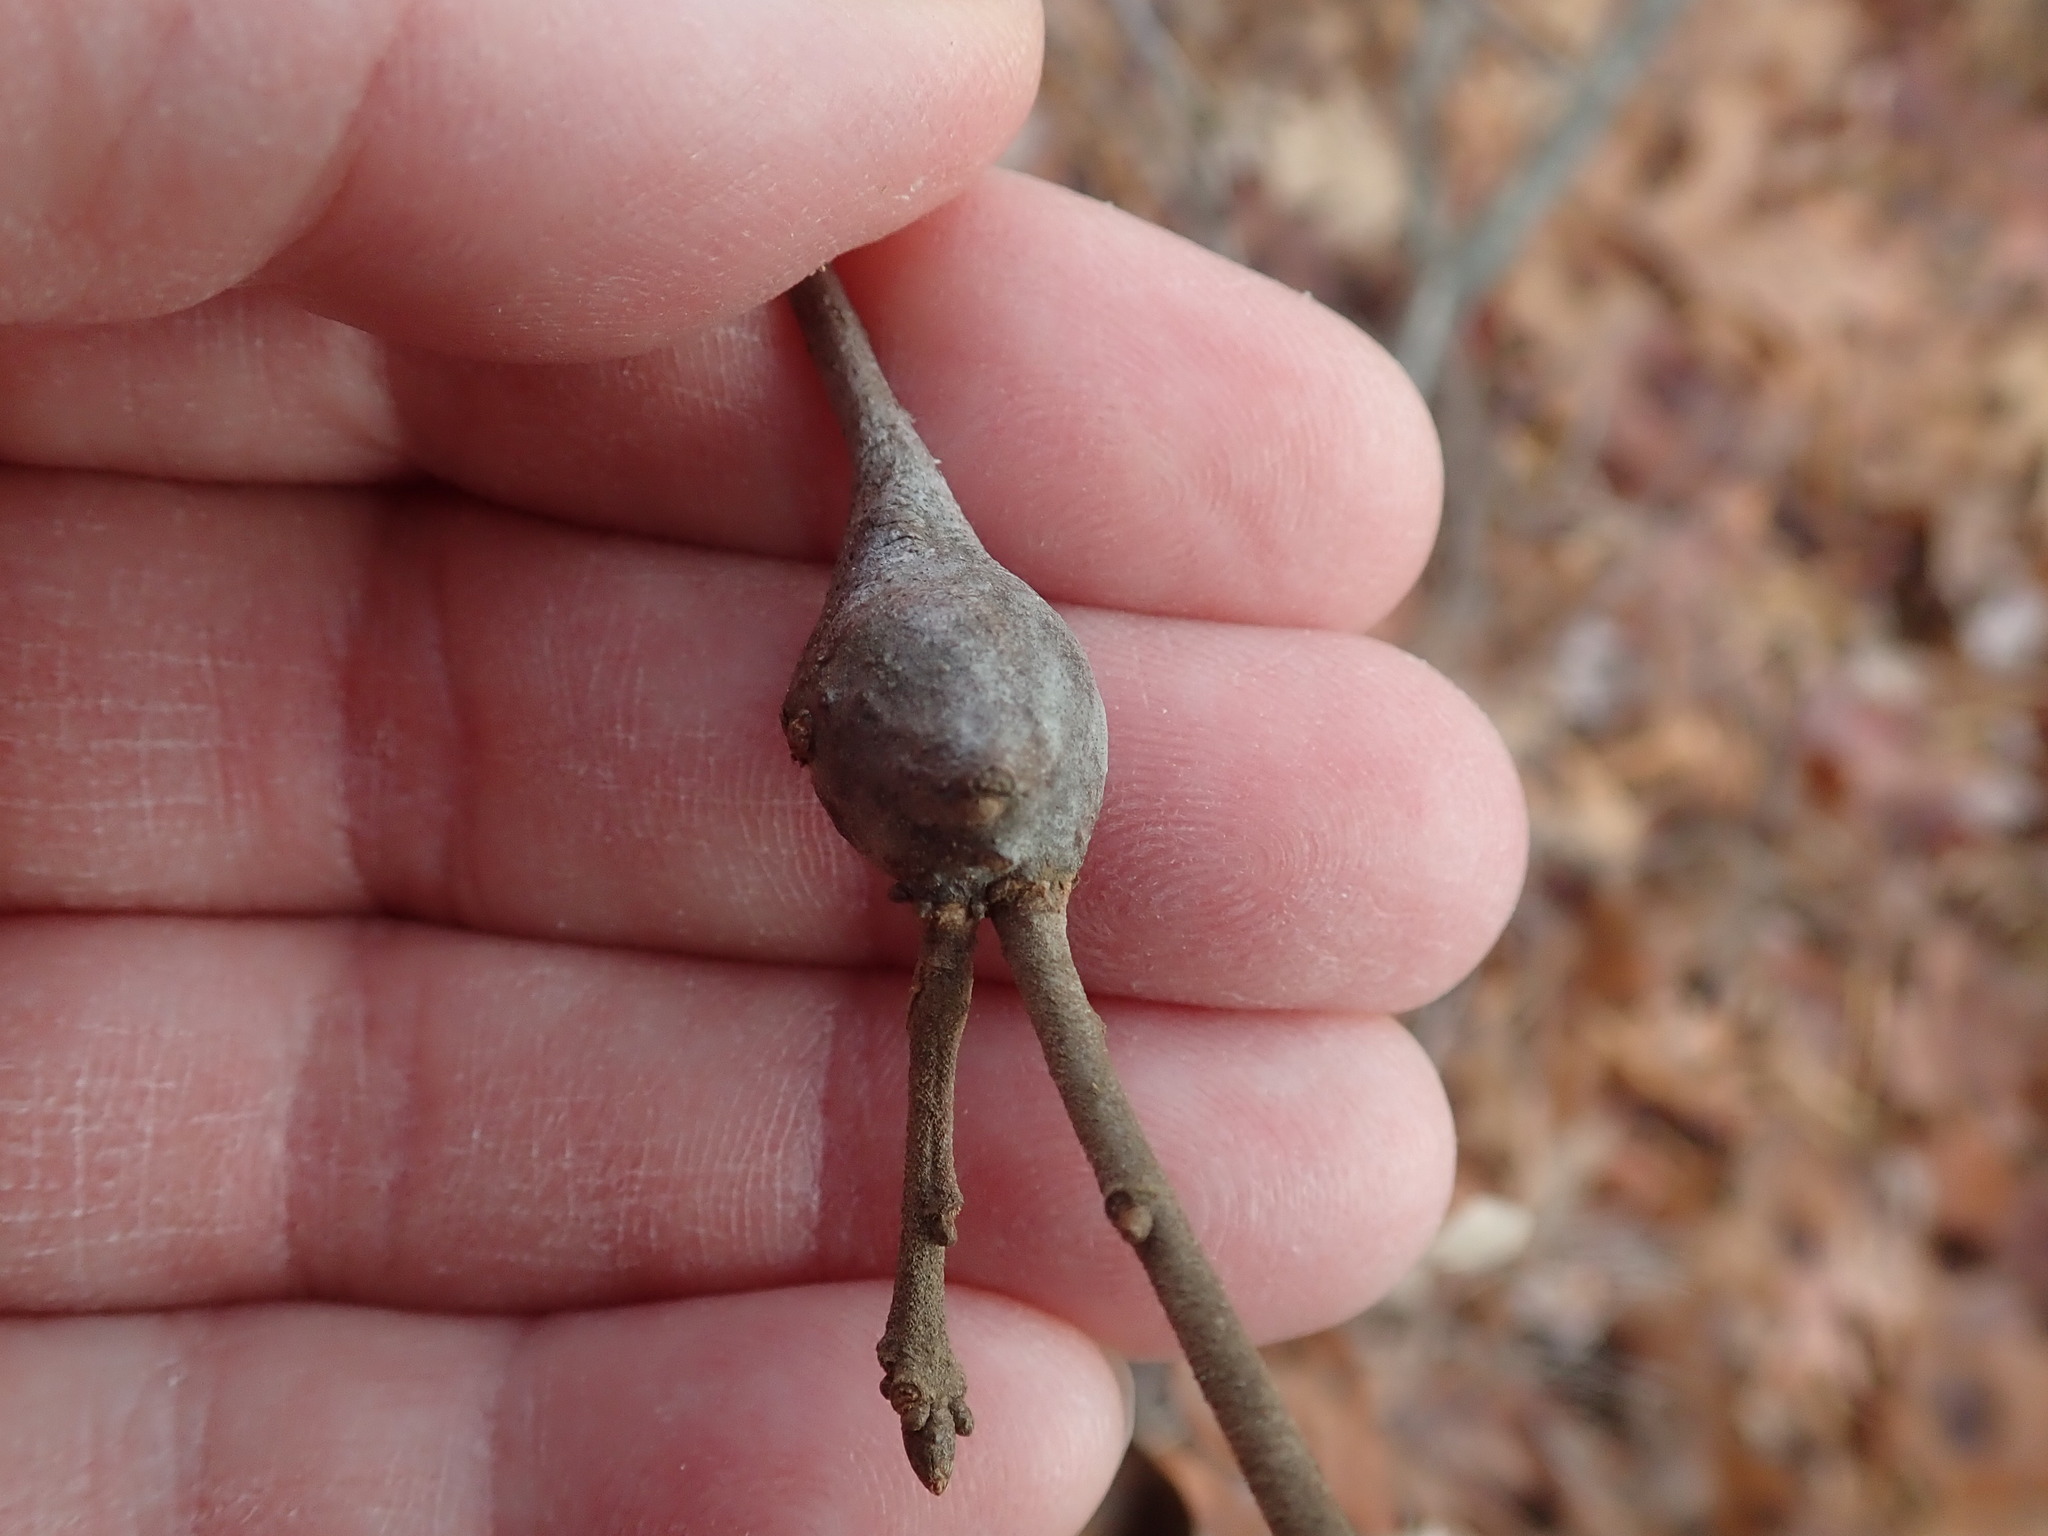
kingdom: Animalia
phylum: Arthropoda
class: Insecta
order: Hymenoptera
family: Cynipidae
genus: Zapatella
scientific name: Zapatella quercusphellos
